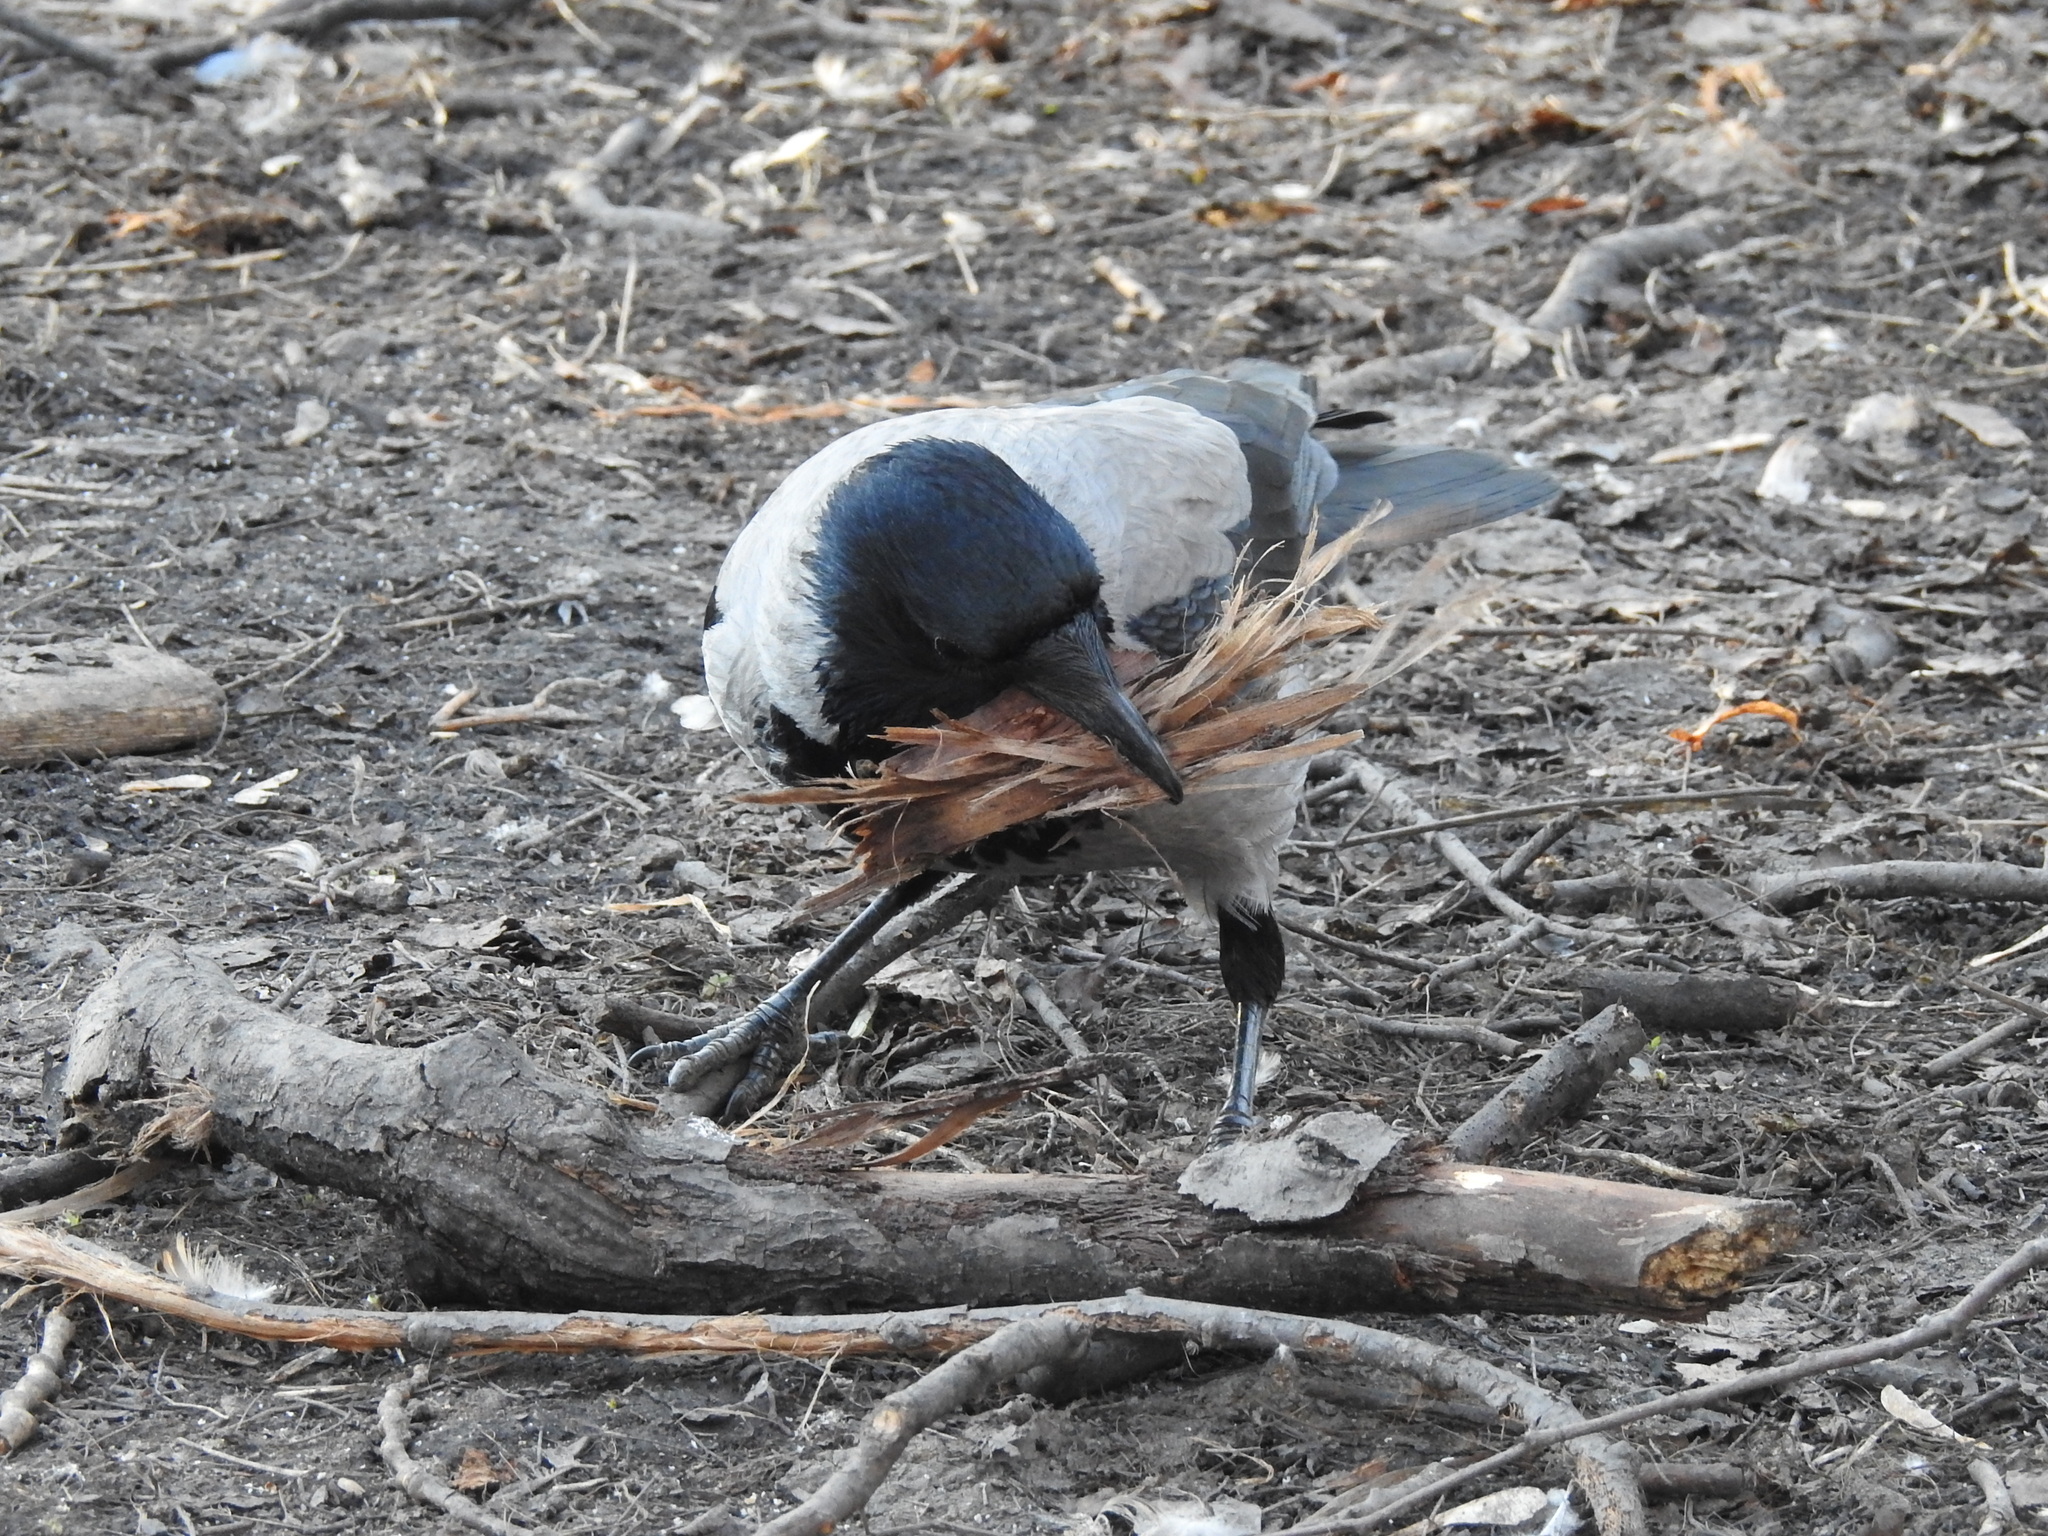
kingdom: Animalia
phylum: Chordata
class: Aves
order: Passeriformes
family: Corvidae
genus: Corvus
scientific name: Corvus cornix
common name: Hooded crow
